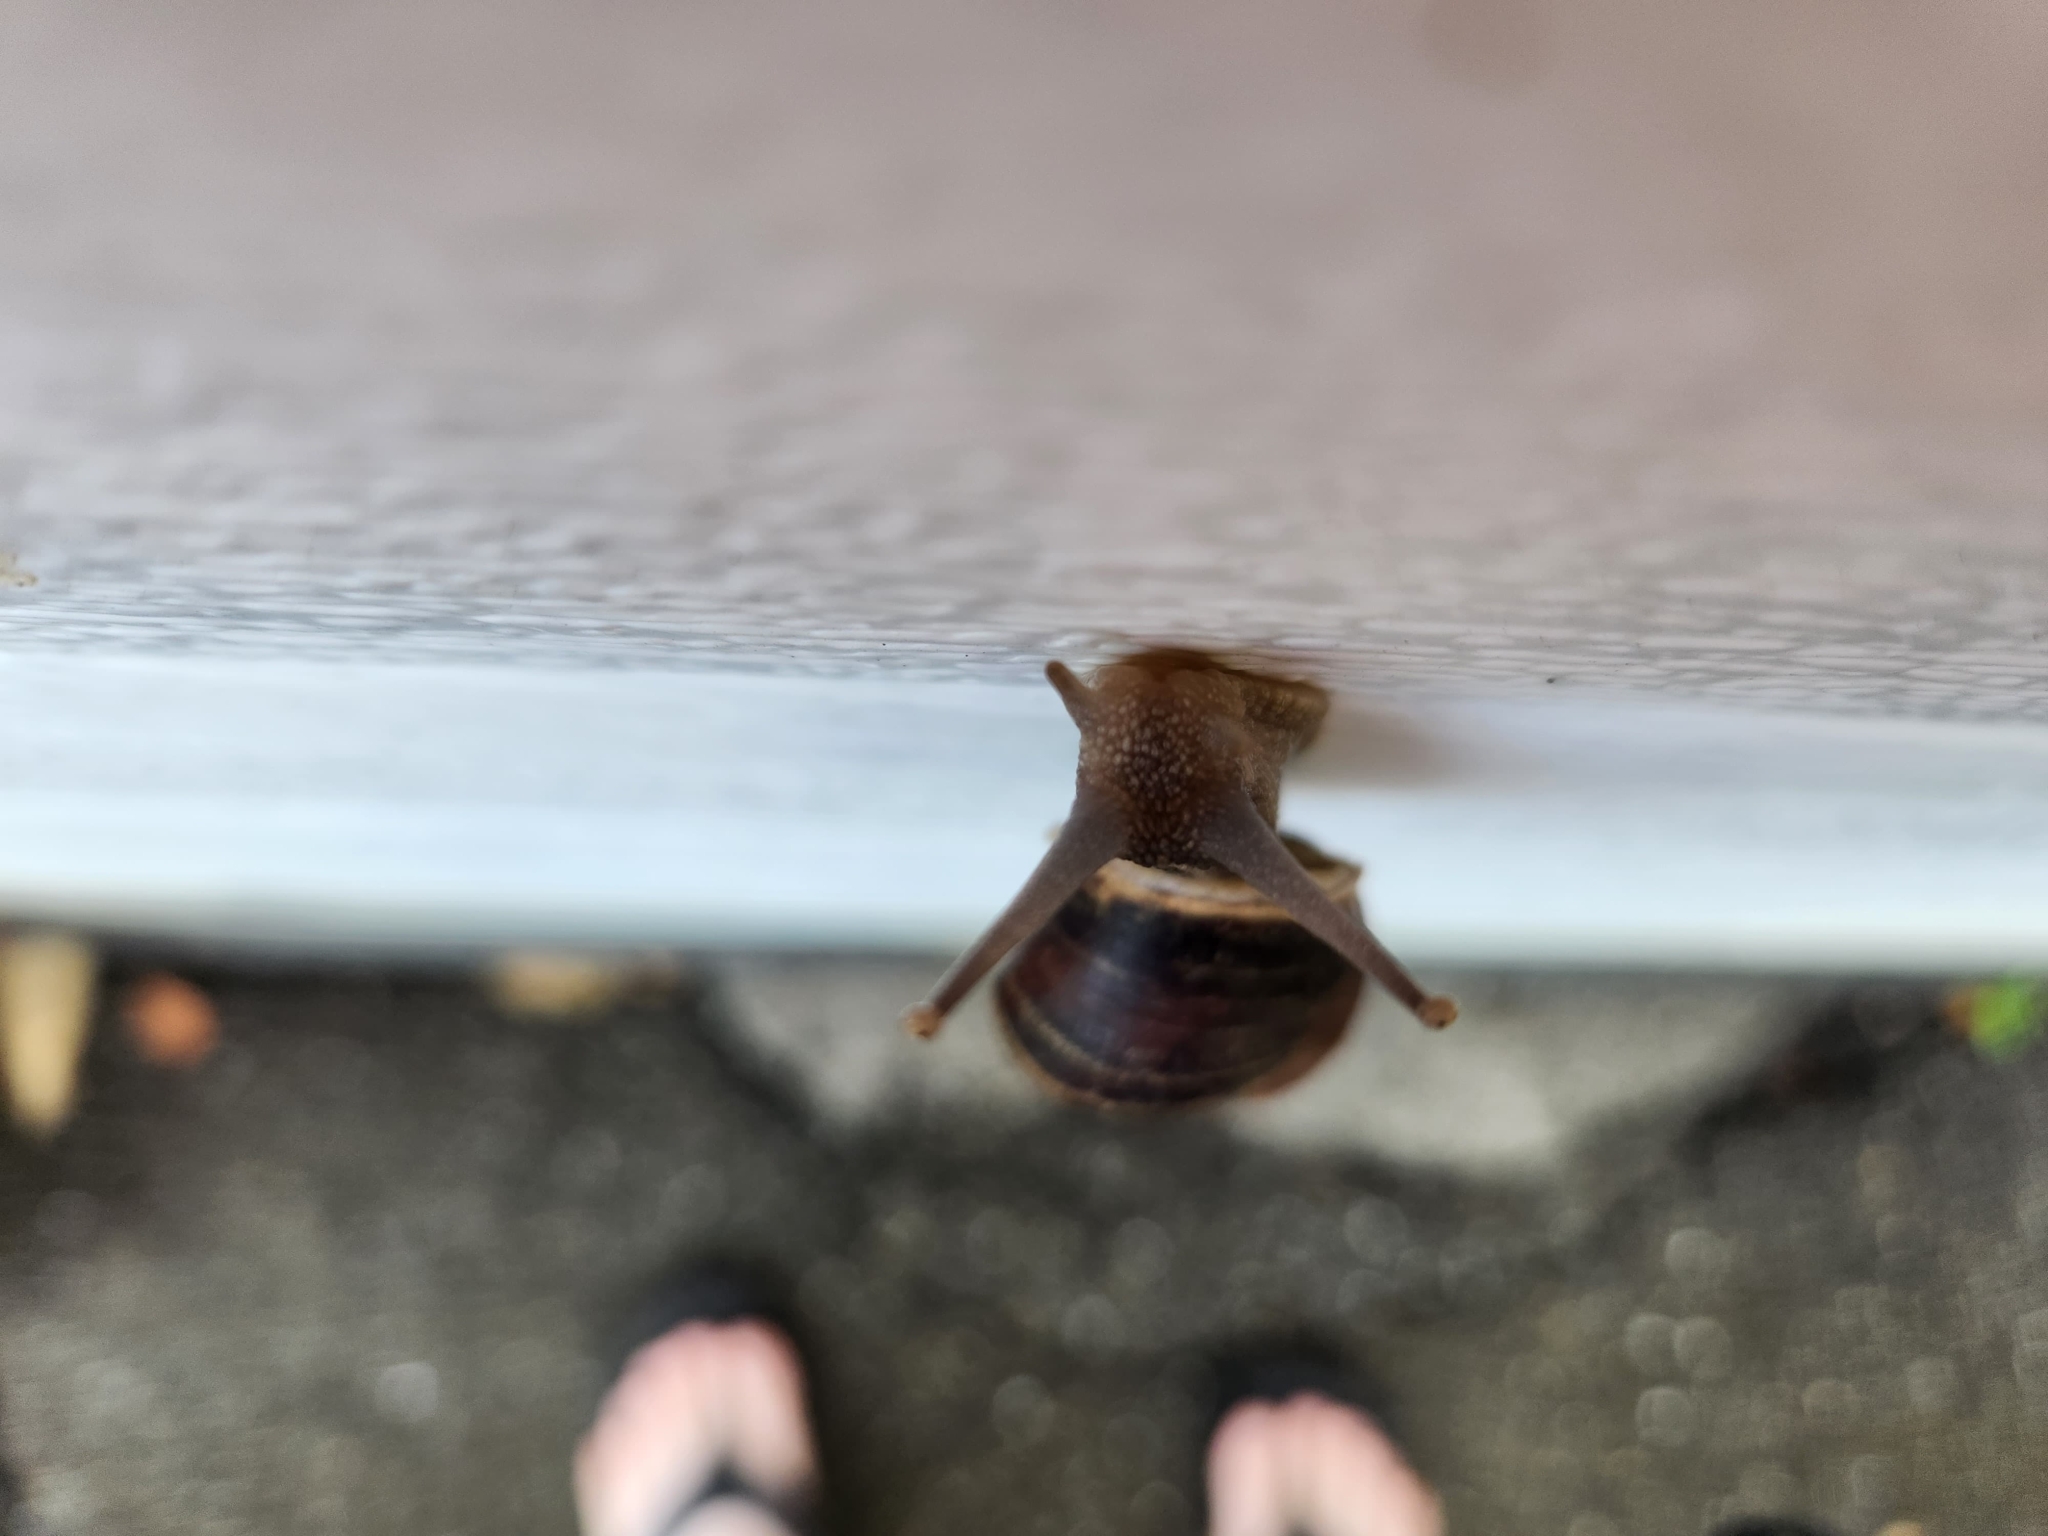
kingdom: Animalia
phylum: Mollusca
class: Gastropoda
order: Stylommatophora
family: Helicidae
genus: Cornu
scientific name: Cornu aspersum
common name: Brown garden snail
